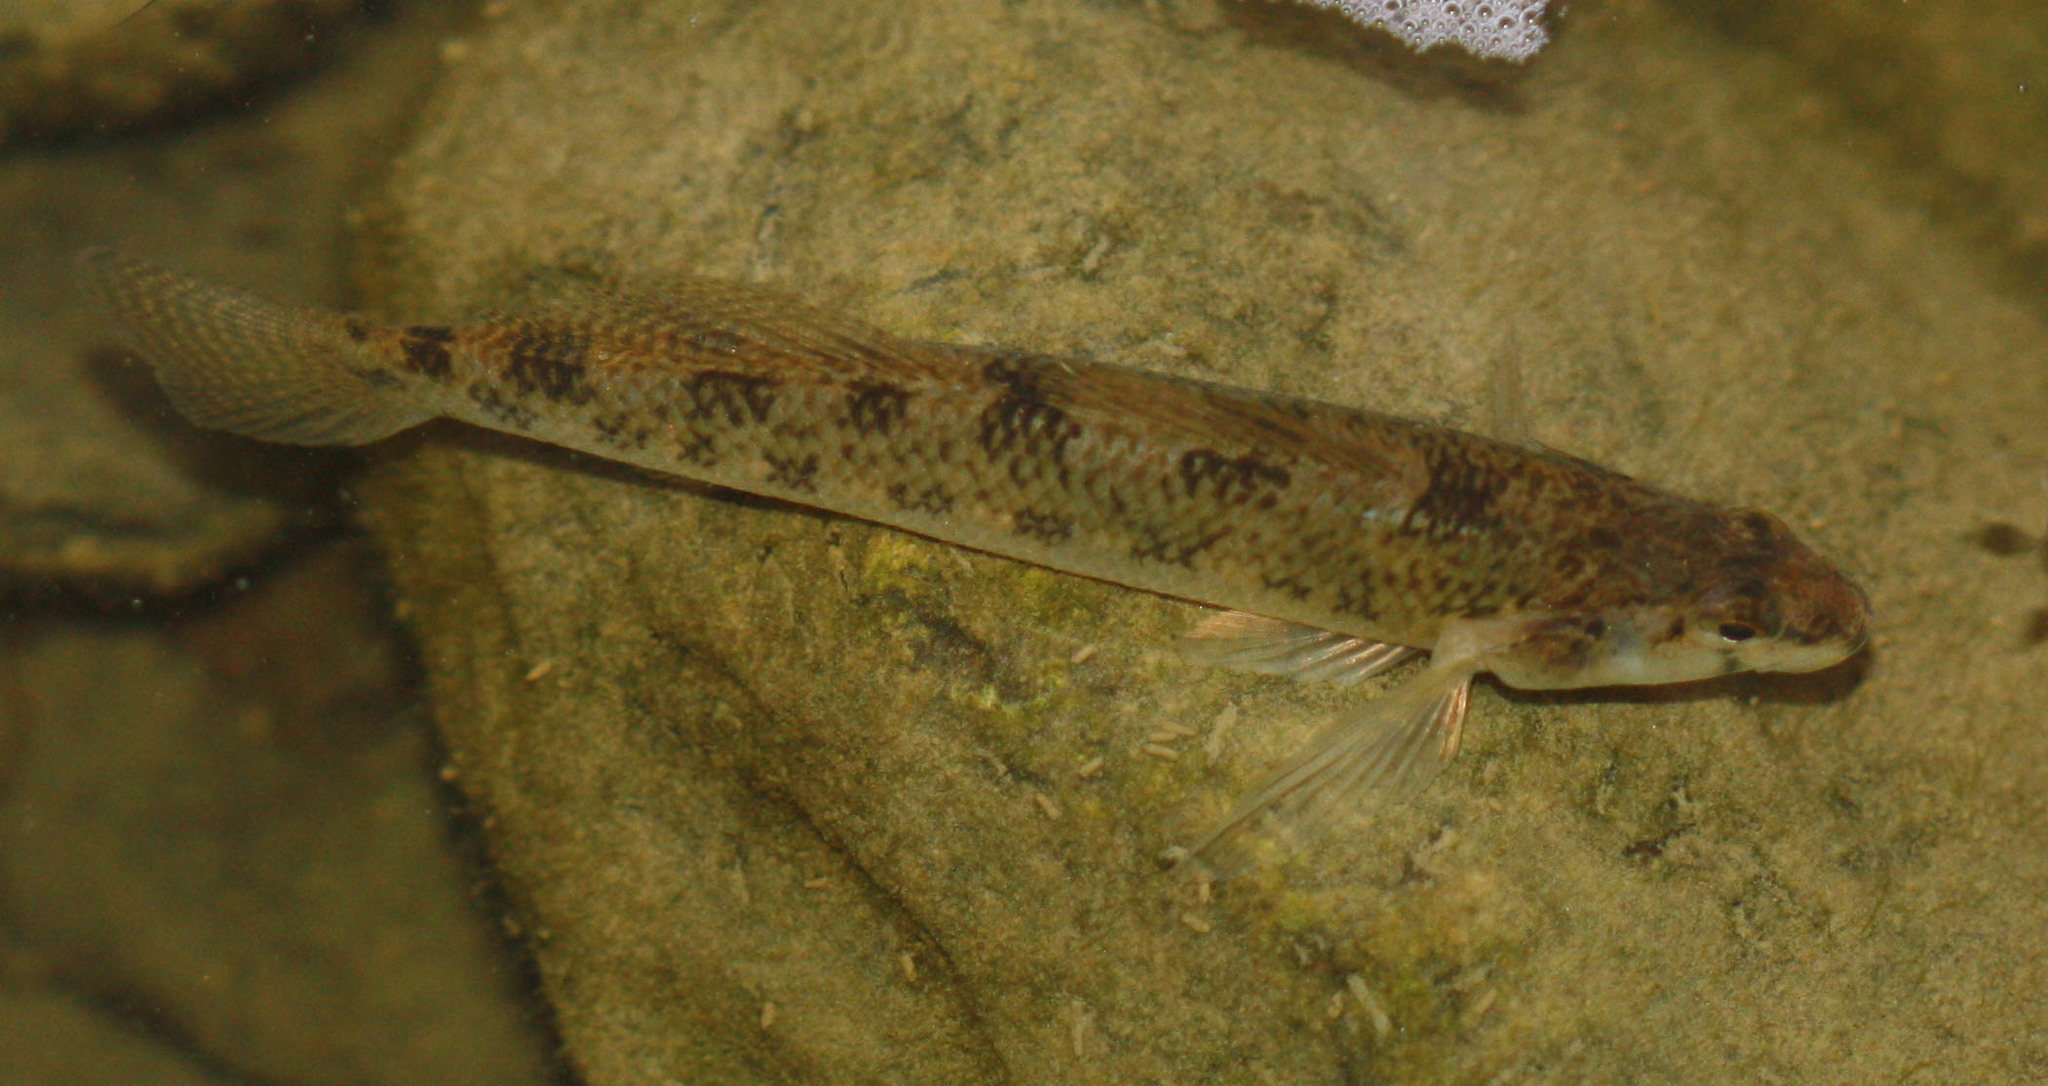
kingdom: Animalia
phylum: Chordata
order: Perciformes
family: Percidae
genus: Etheostoma
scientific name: Etheostoma olmstedi
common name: Tessellated darter
